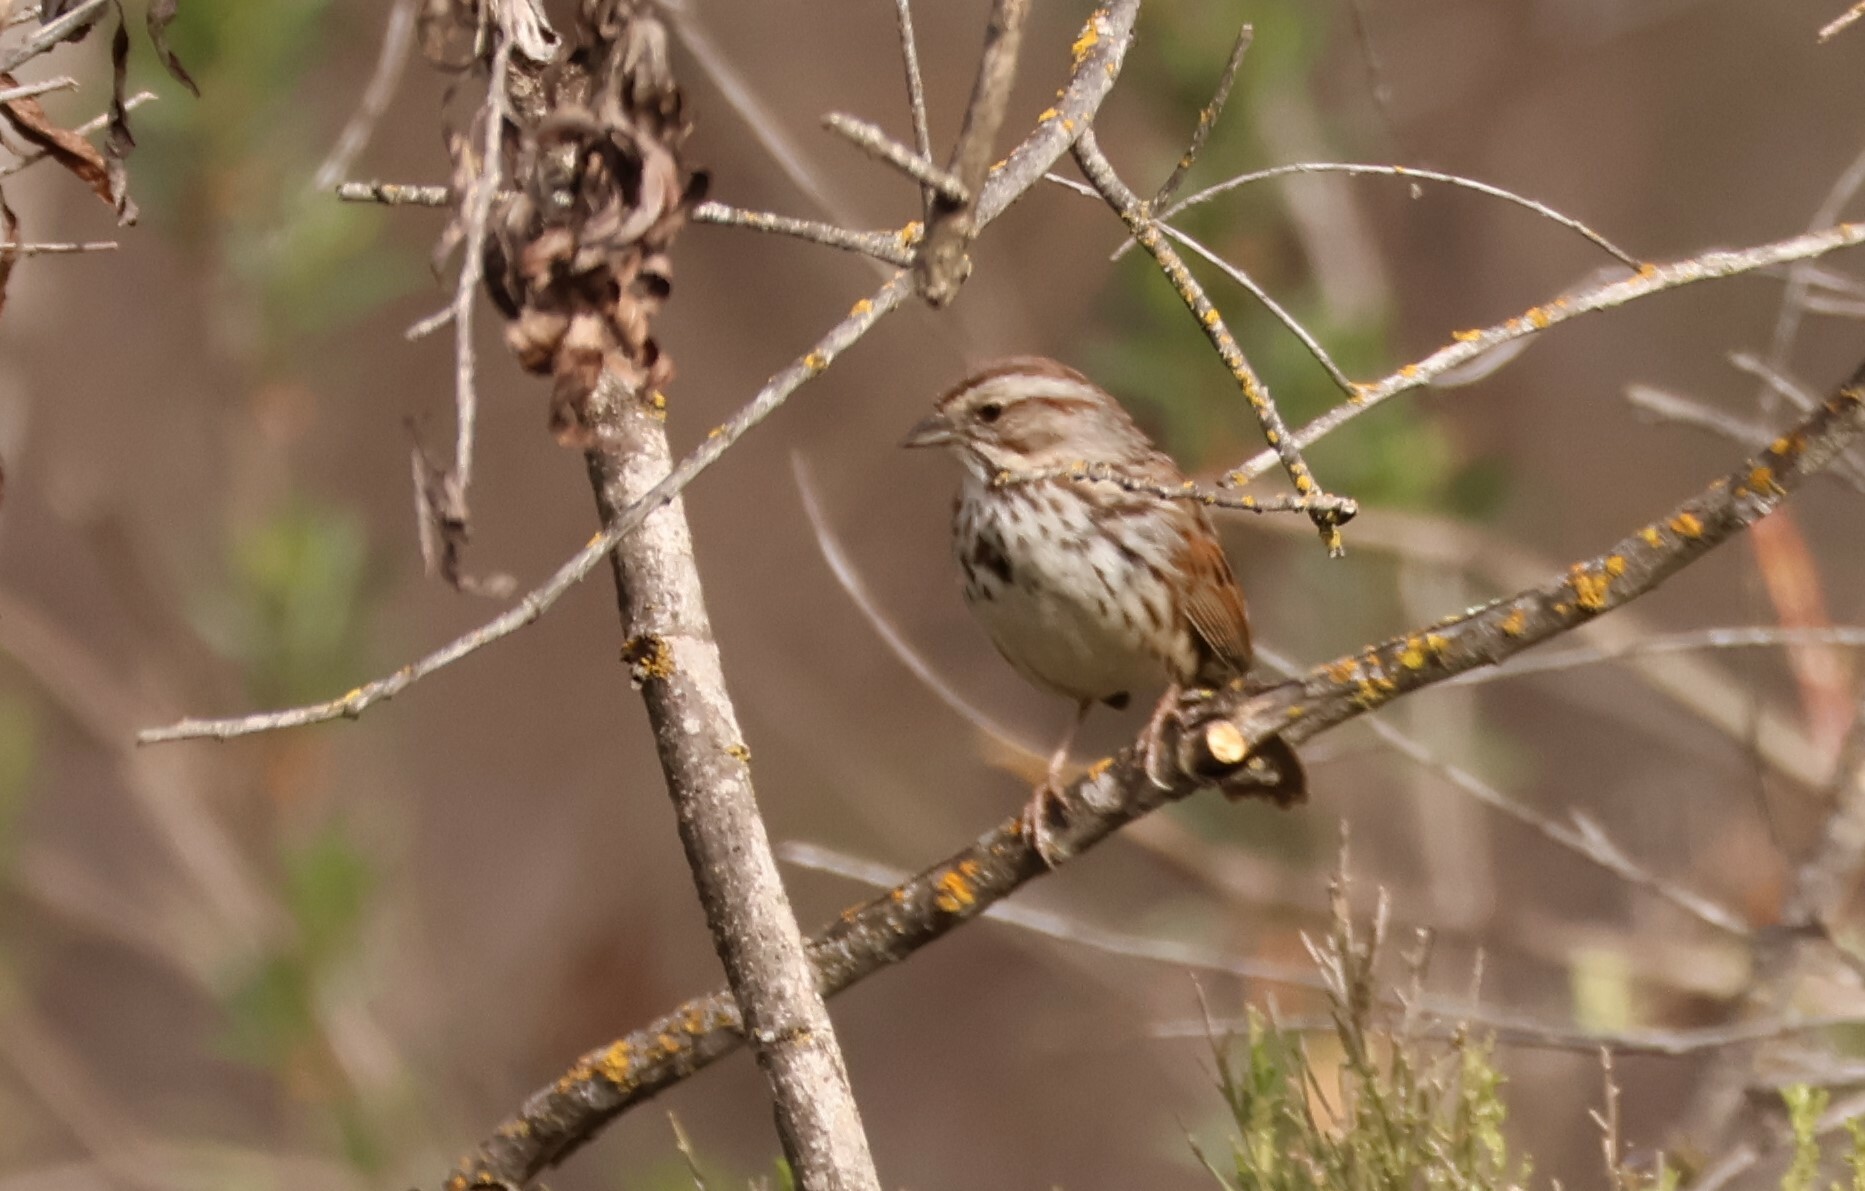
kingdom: Animalia
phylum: Chordata
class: Aves
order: Passeriformes
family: Passerellidae
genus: Melospiza
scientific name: Melospiza melodia
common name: Song sparrow
